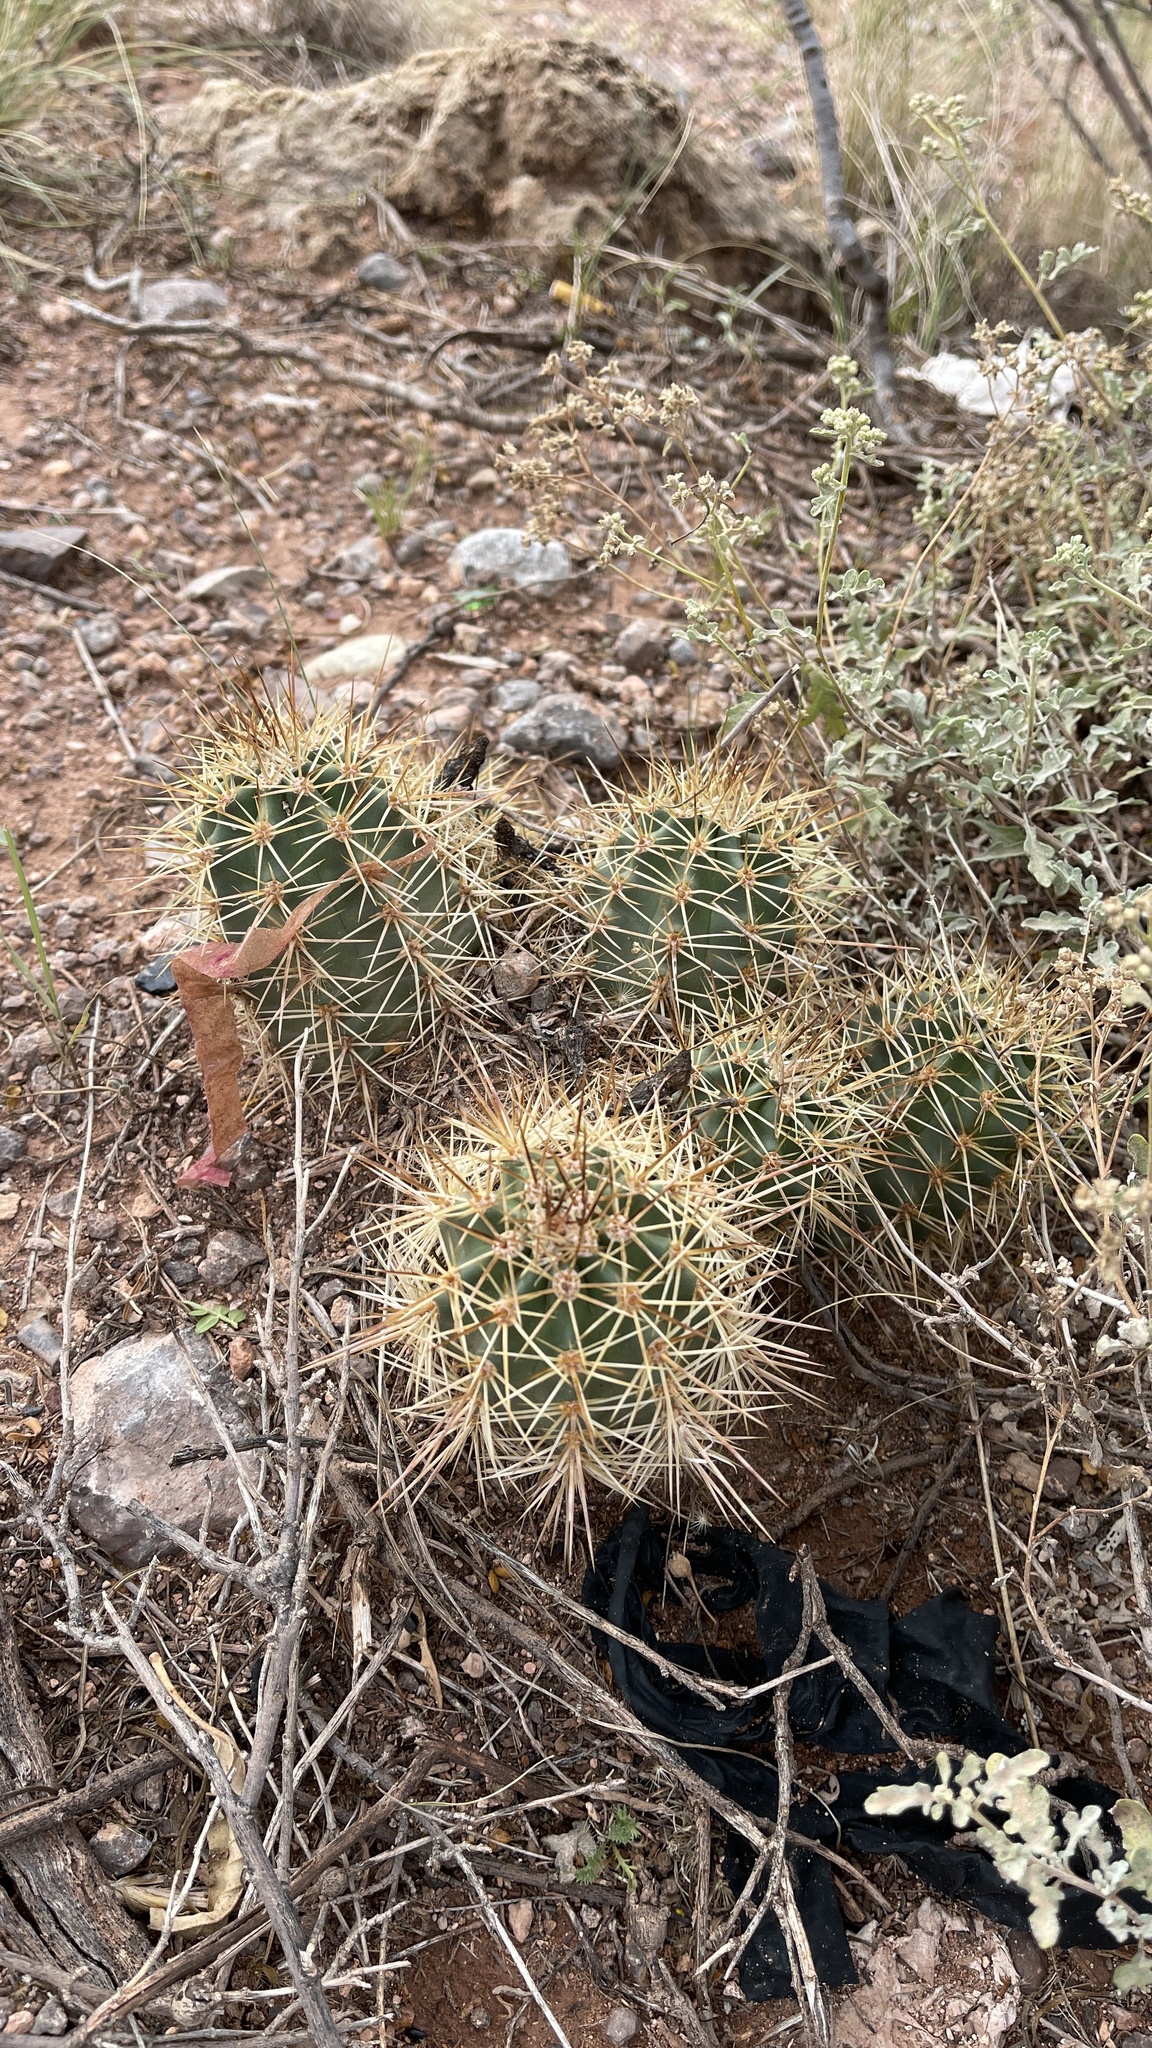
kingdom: Plantae
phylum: Tracheophyta
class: Magnoliopsida
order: Caryophyllales
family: Cactaceae
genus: Echinocereus
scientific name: Echinocereus coccineus
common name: Scarlet hedgehog cactus
